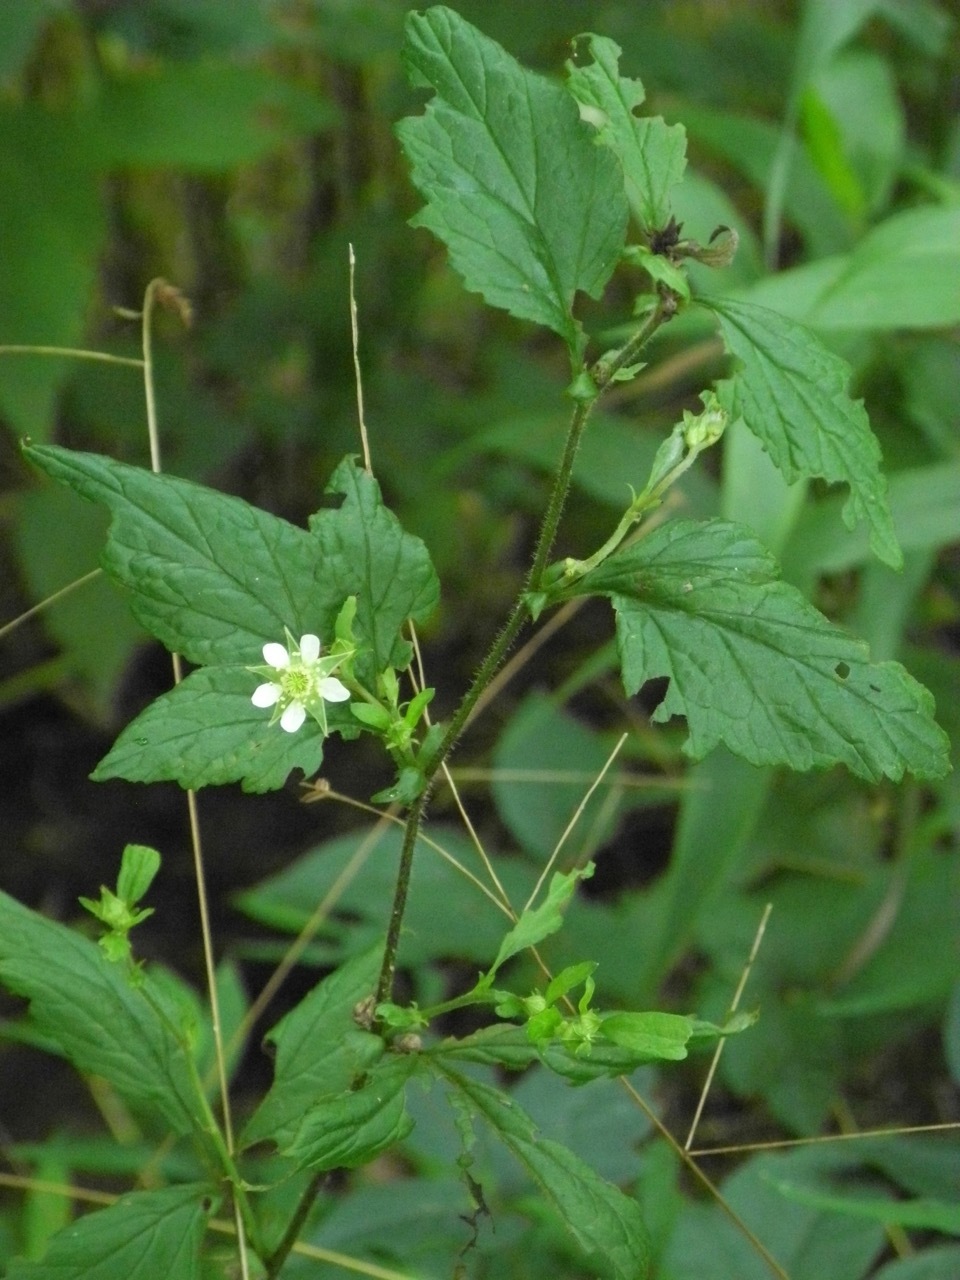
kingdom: Plantae
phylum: Tracheophyta
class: Magnoliopsida
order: Rosales
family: Rosaceae
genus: Geum
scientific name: Geum canadense
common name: White avens
